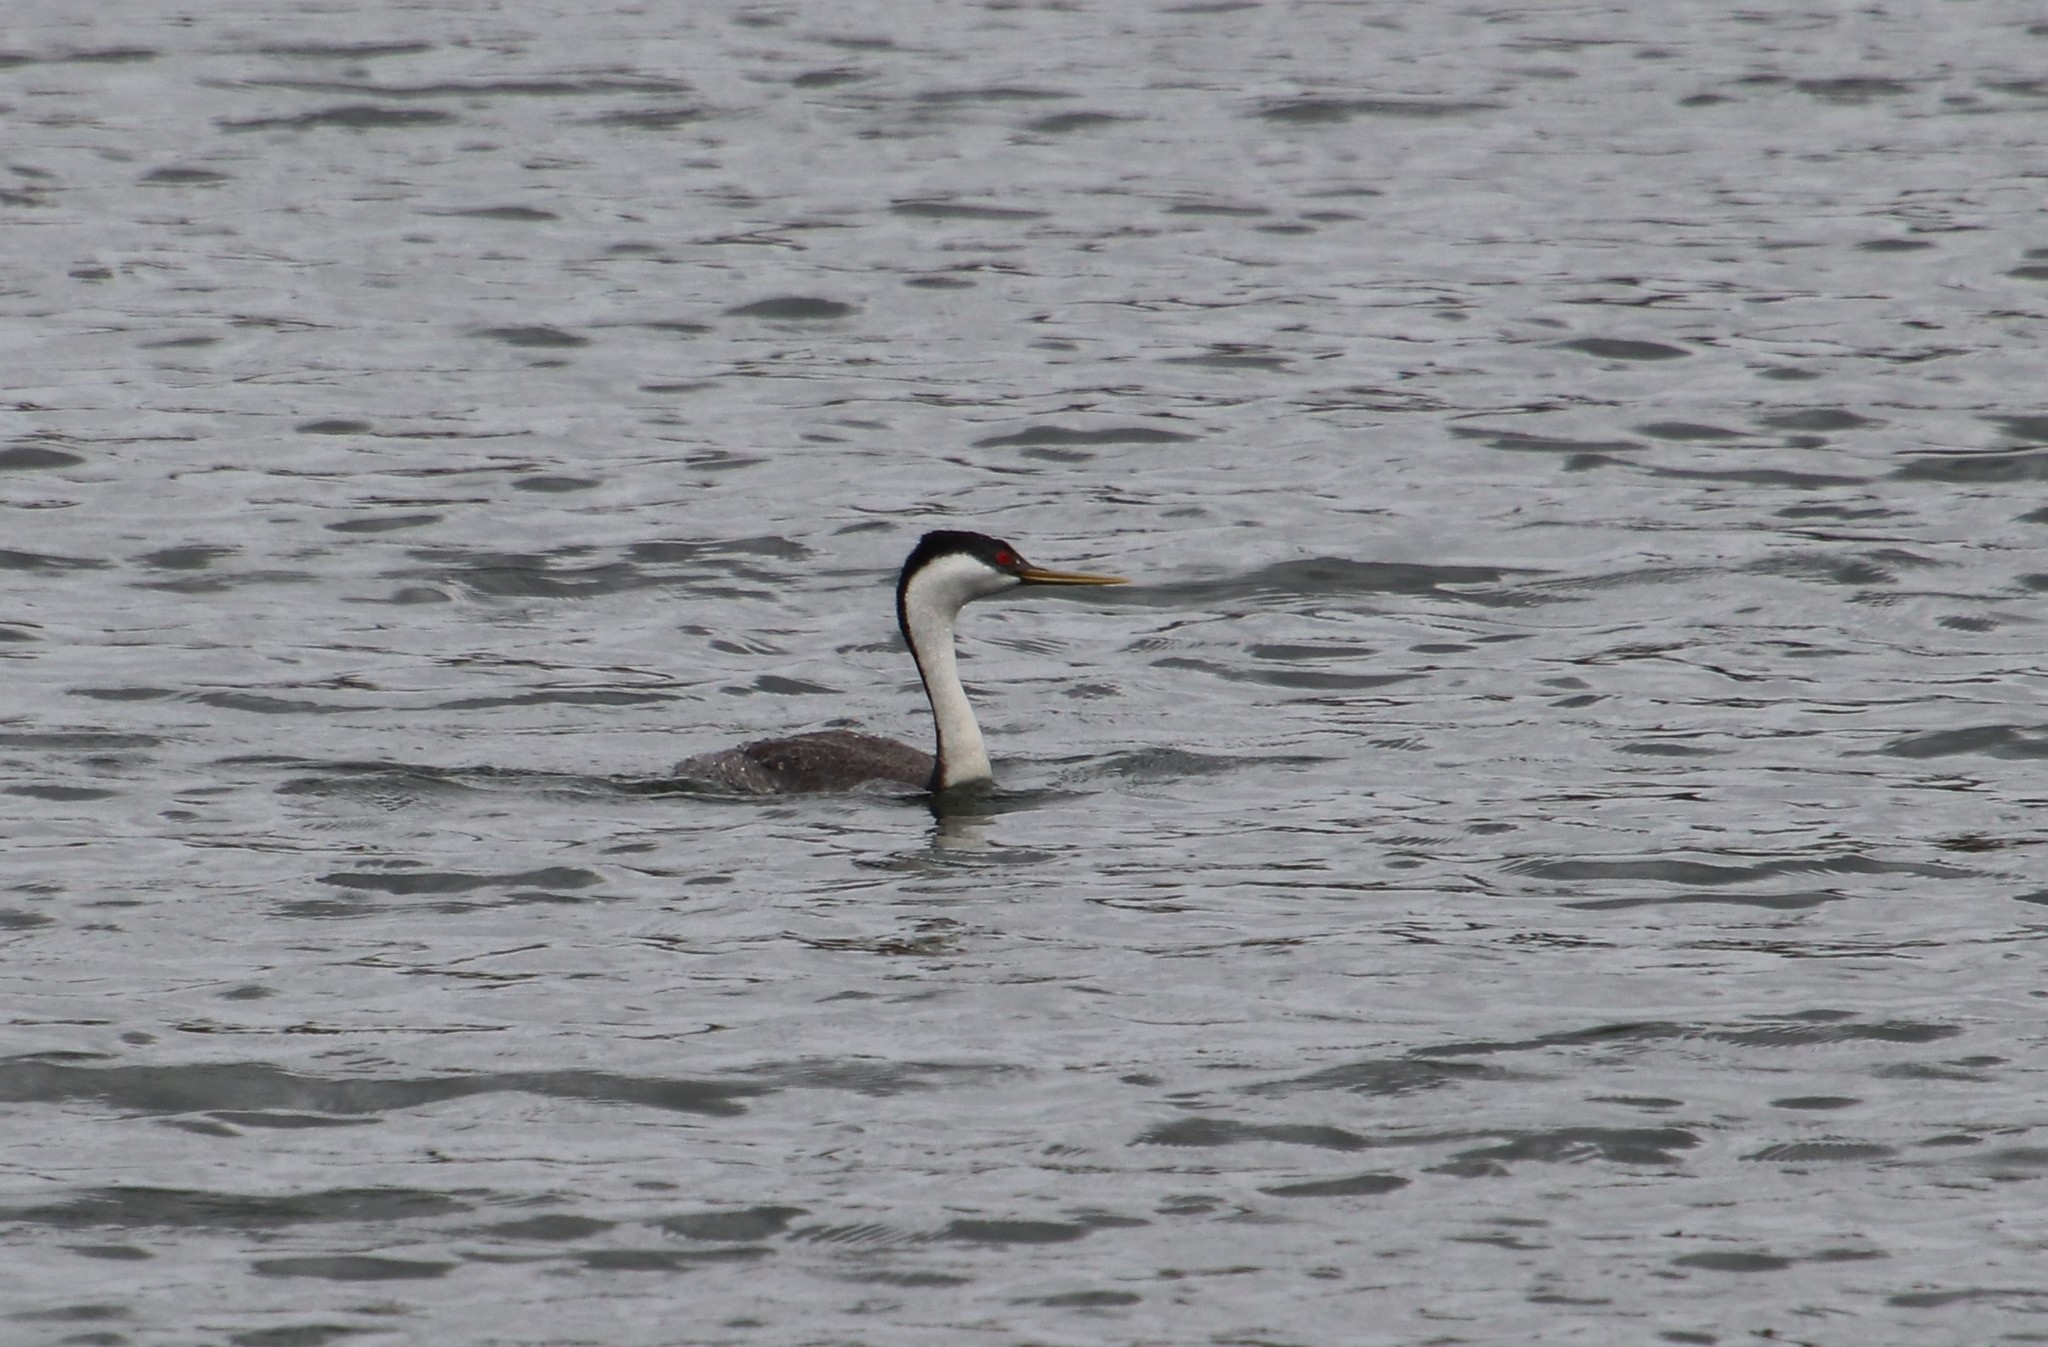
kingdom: Animalia
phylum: Chordata
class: Aves
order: Podicipediformes
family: Podicipedidae
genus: Aechmophorus
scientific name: Aechmophorus occidentalis
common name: Western grebe
